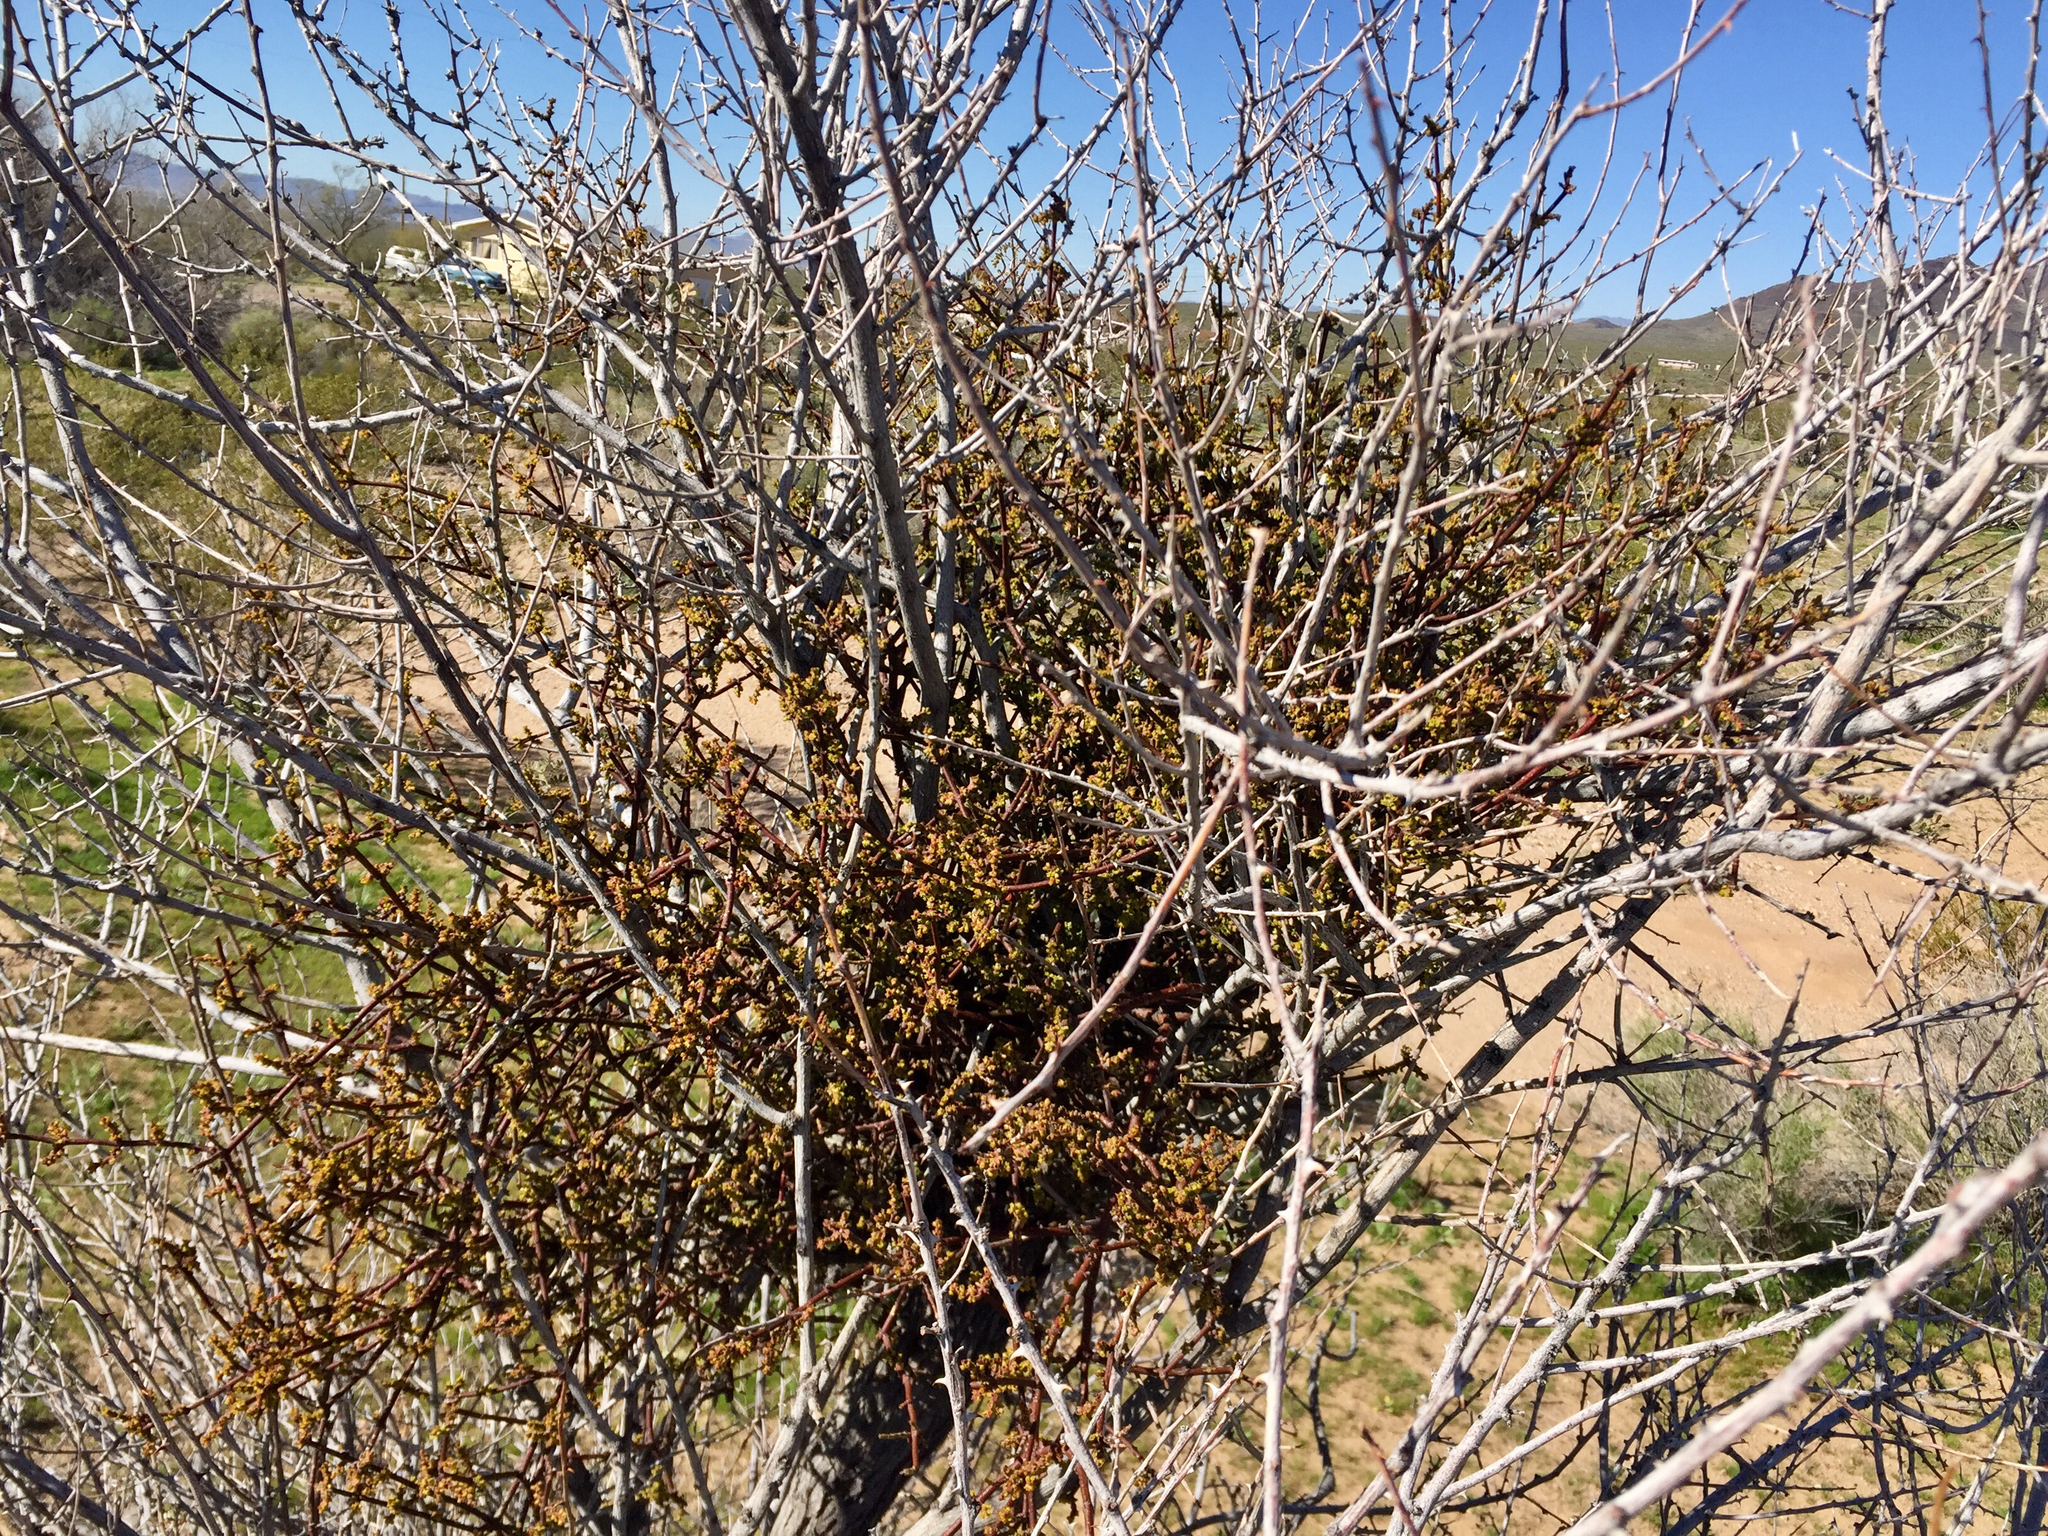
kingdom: Plantae
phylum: Tracheophyta
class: Magnoliopsida
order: Santalales
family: Viscaceae
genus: Phoradendron
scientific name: Phoradendron californicum
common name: Acacia mistletoe
